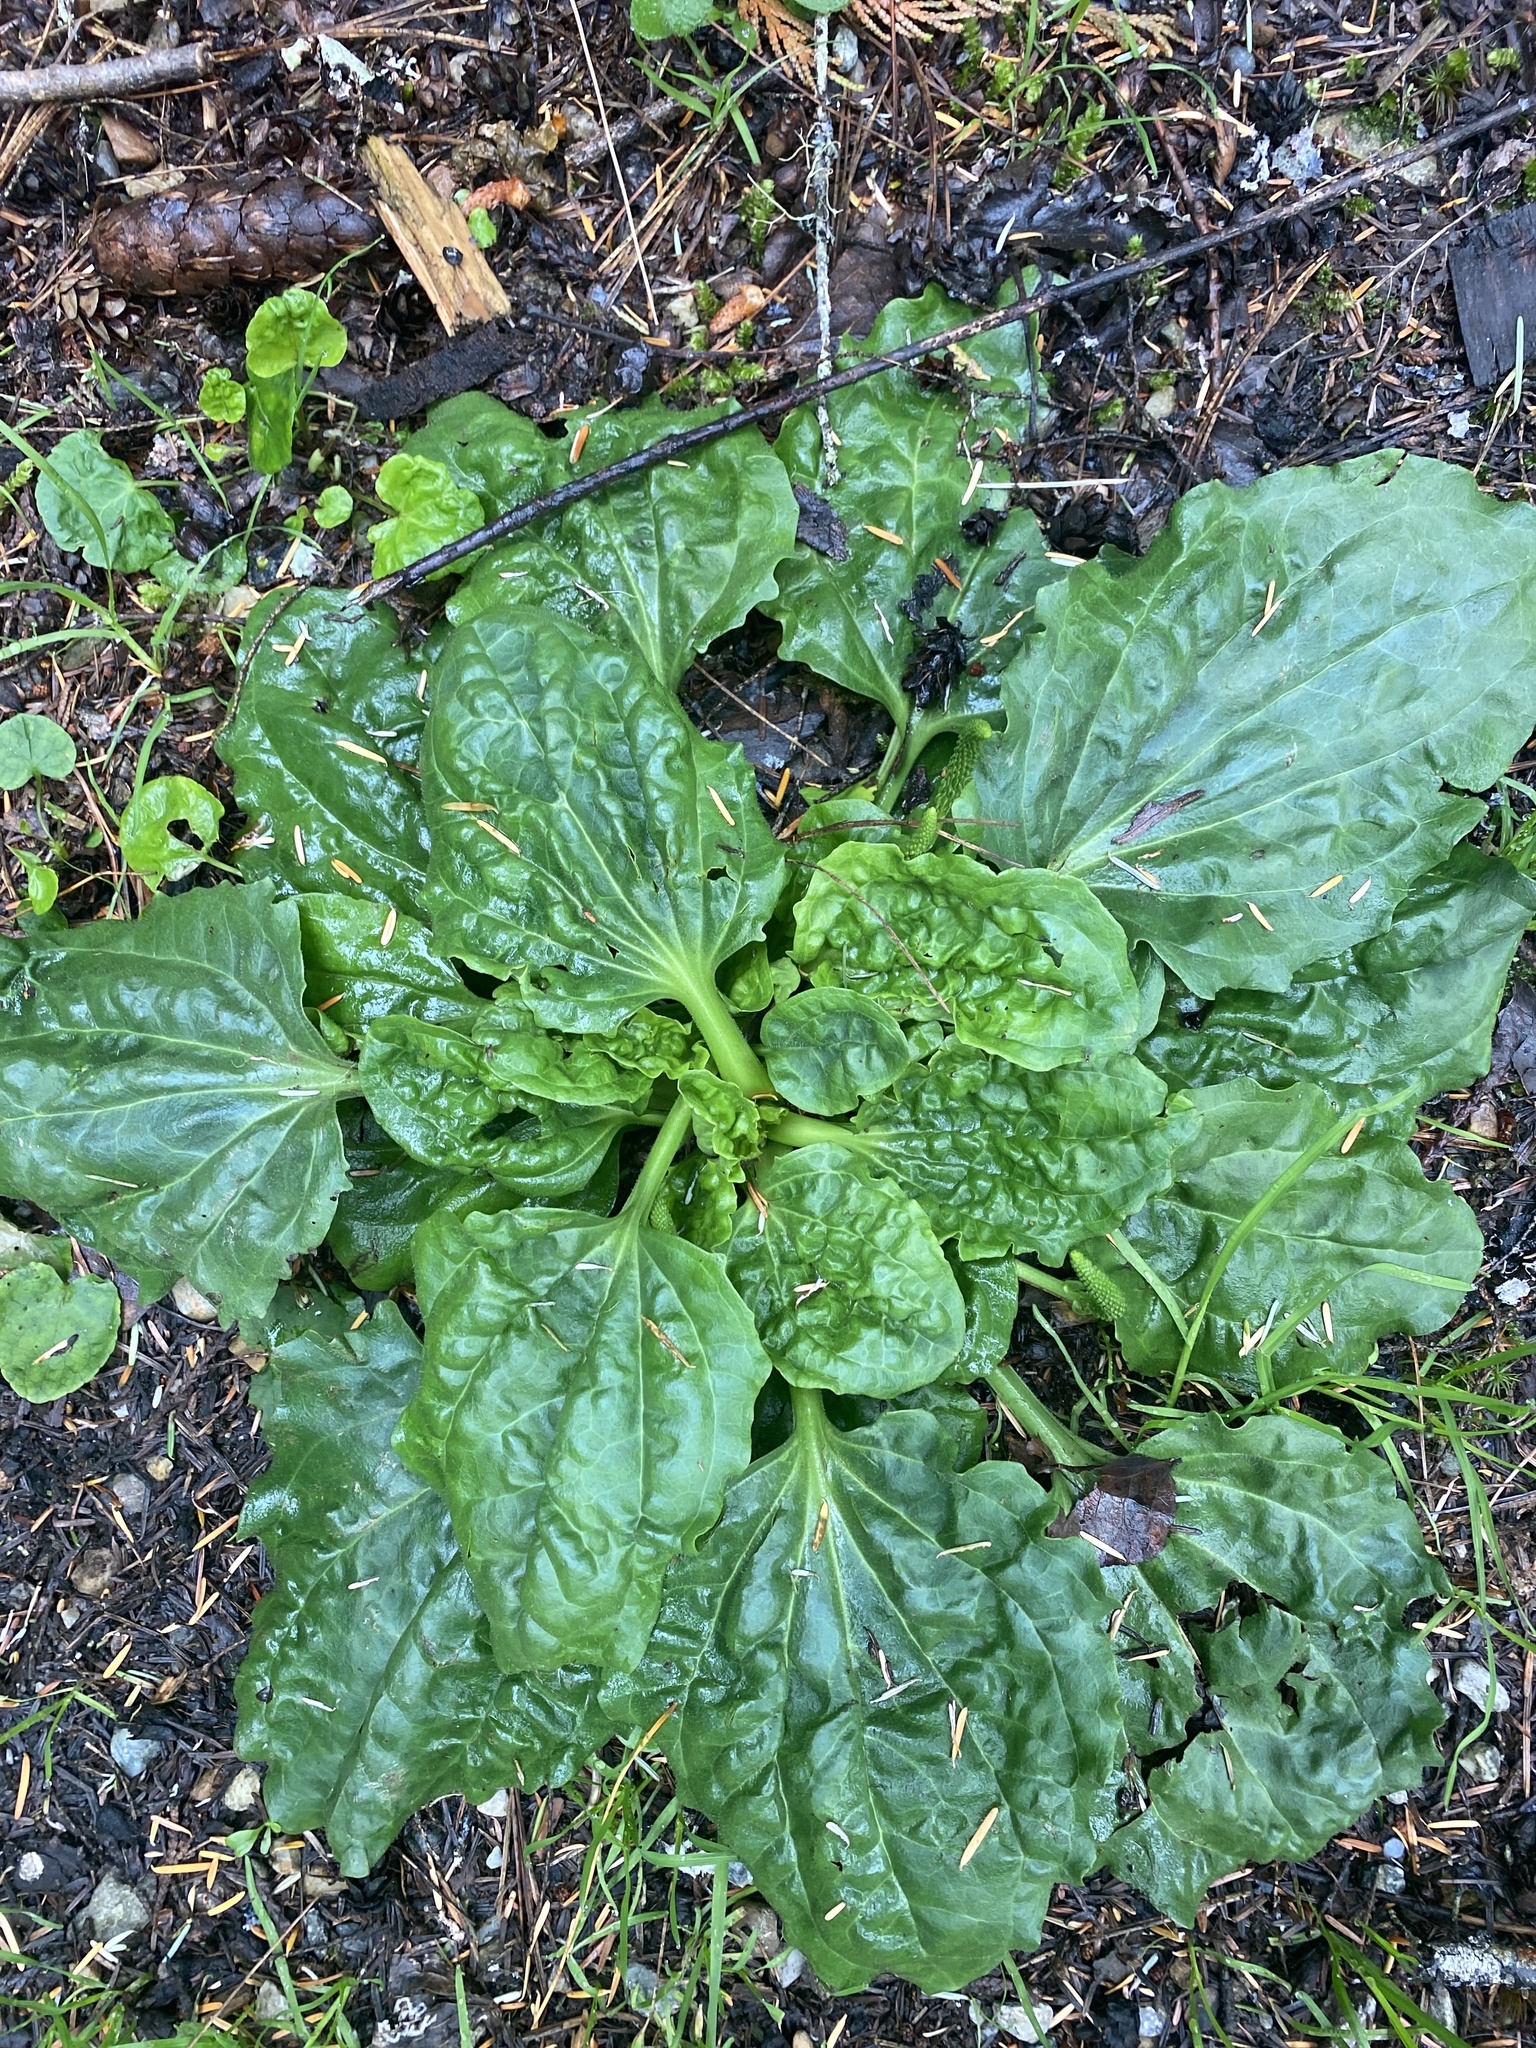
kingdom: Plantae
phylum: Tracheophyta
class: Magnoliopsida
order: Lamiales
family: Plantaginaceae
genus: Plantago
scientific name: Plantago major
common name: Common plantain
